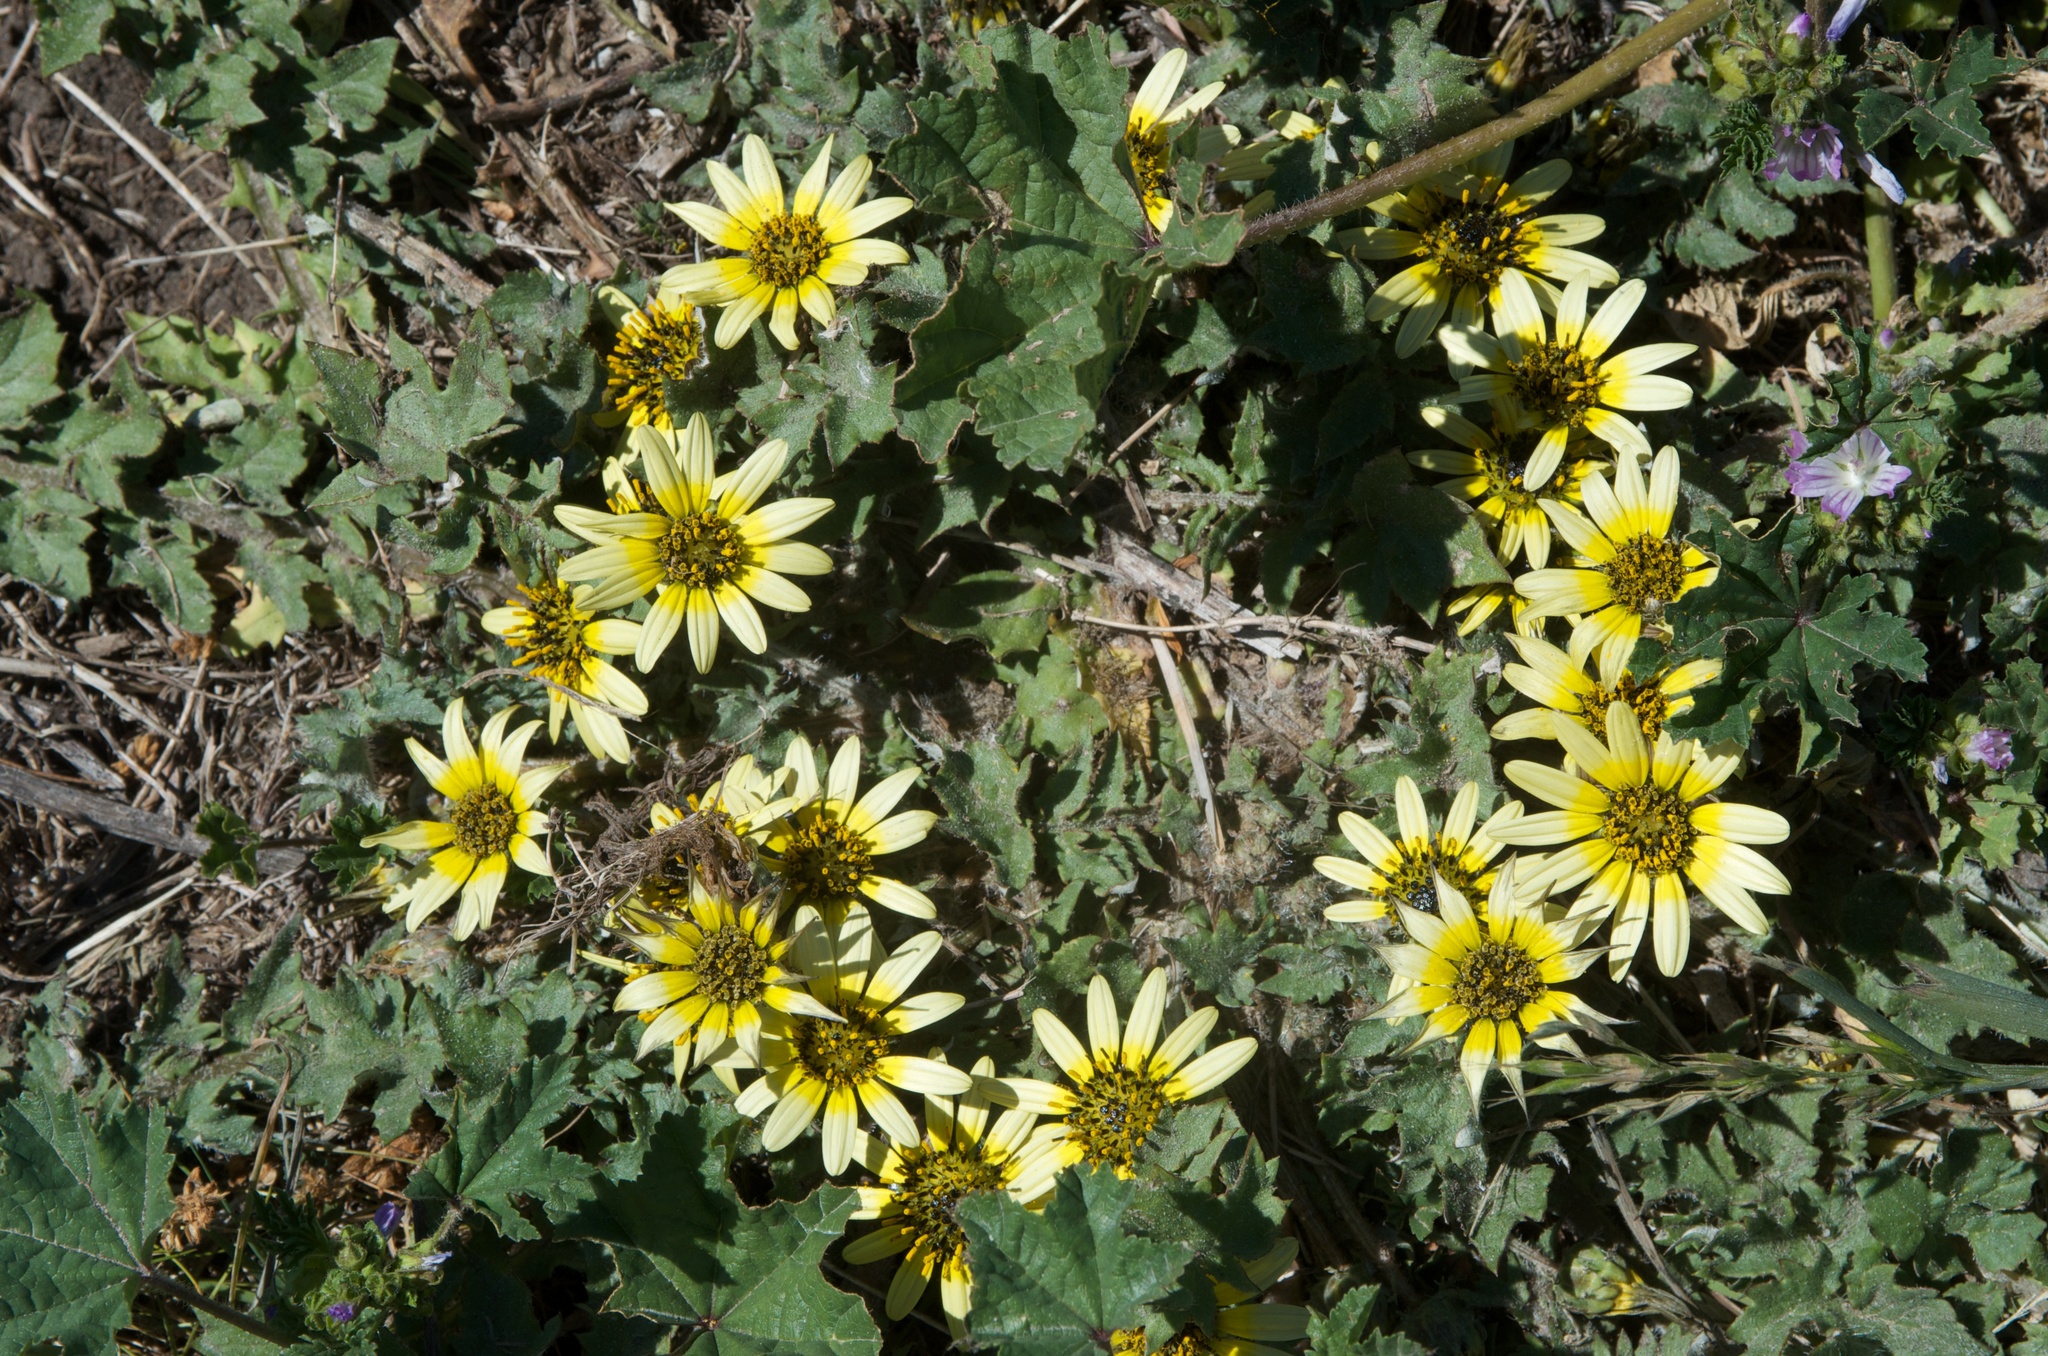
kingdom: Plantae
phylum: Tracheophyta
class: Magnoliopsida
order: Asterales
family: Asteraceae
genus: Arctotheca
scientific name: Arctotheca calendula
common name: Capeweed
